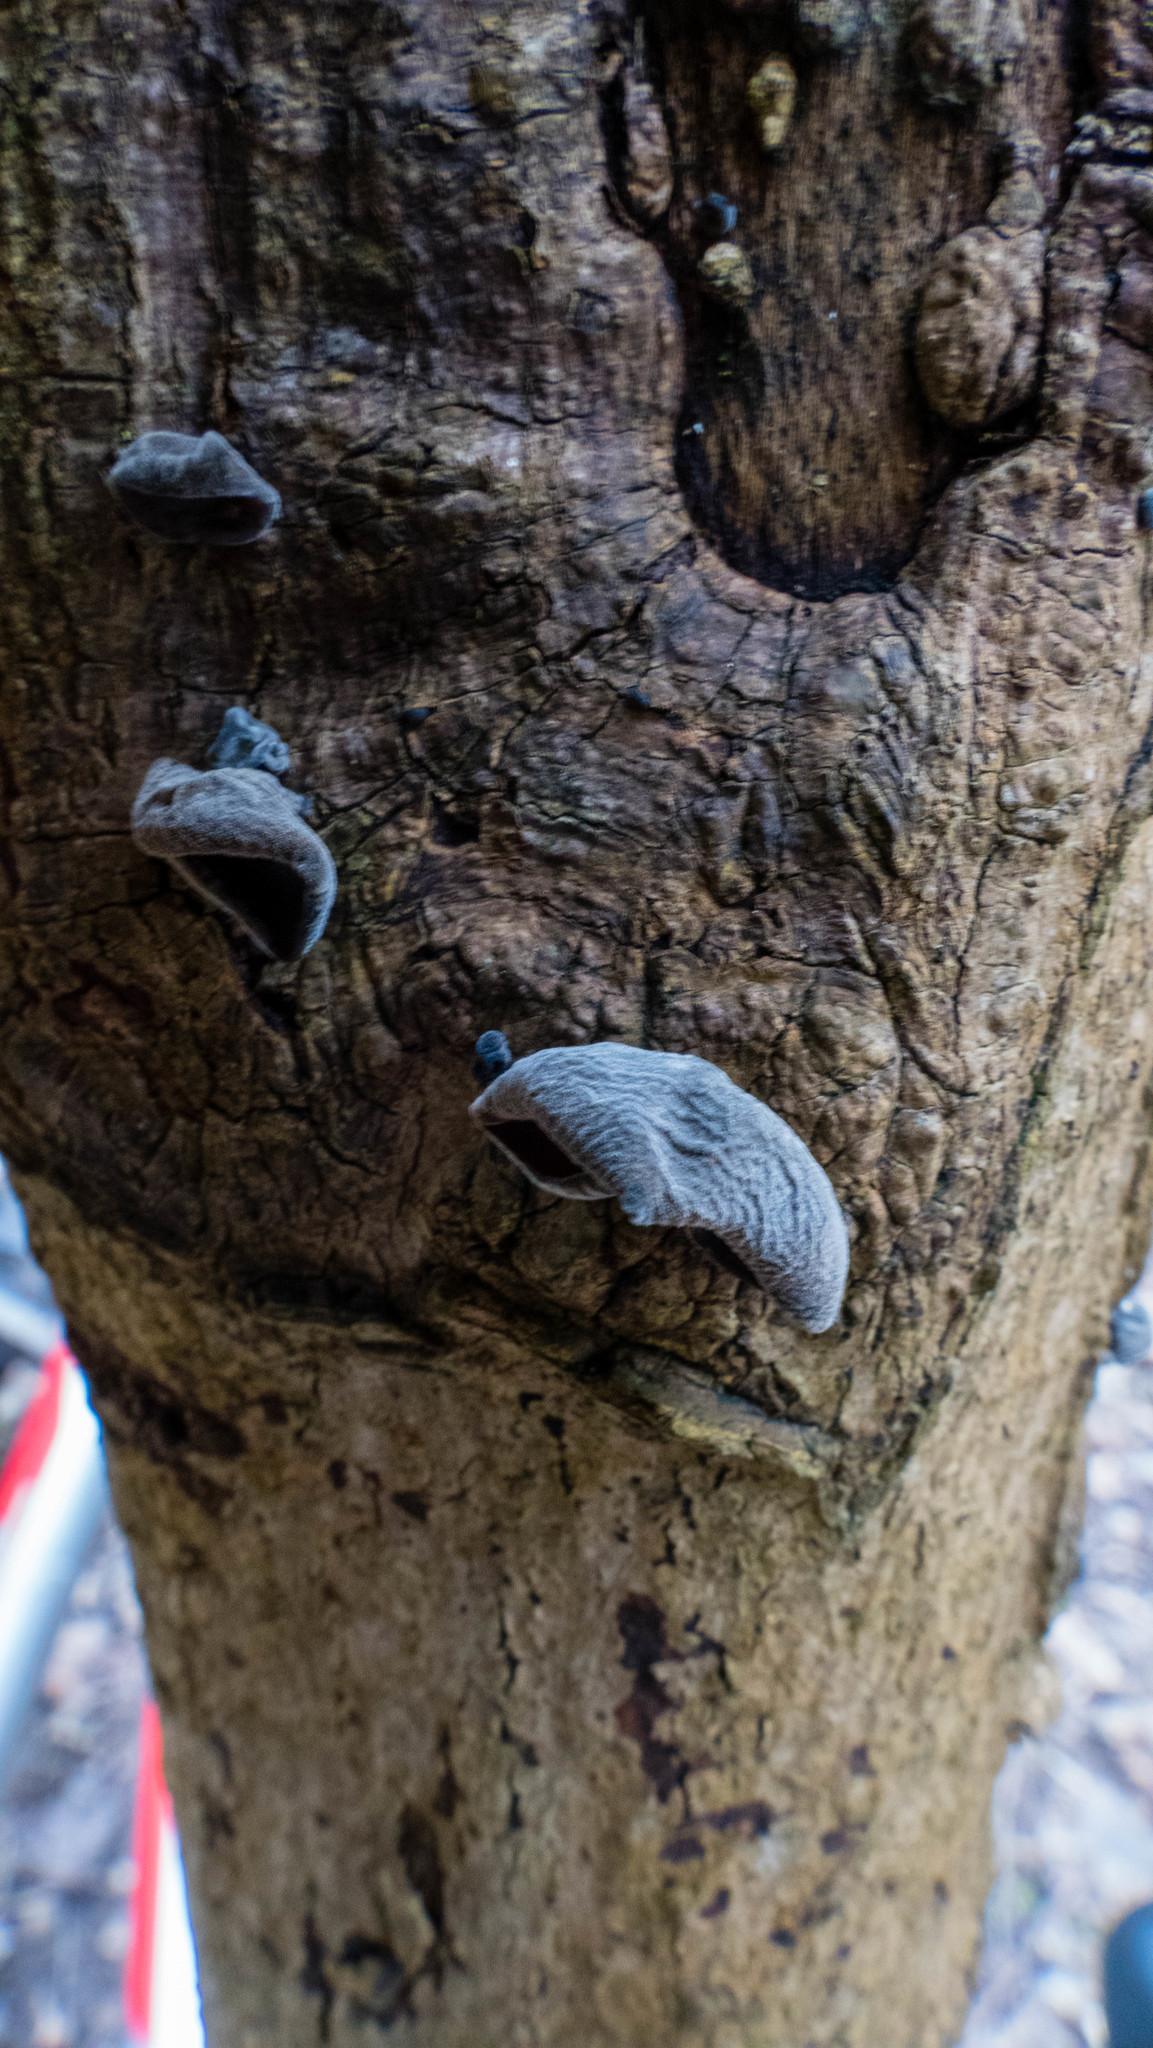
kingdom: Fungi
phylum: Basidiomycota
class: Agaricomycetes
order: Auriculariales
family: Auriculariaceae
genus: Auricularia
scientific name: Auricularia auricula-judae
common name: Jelly ear
